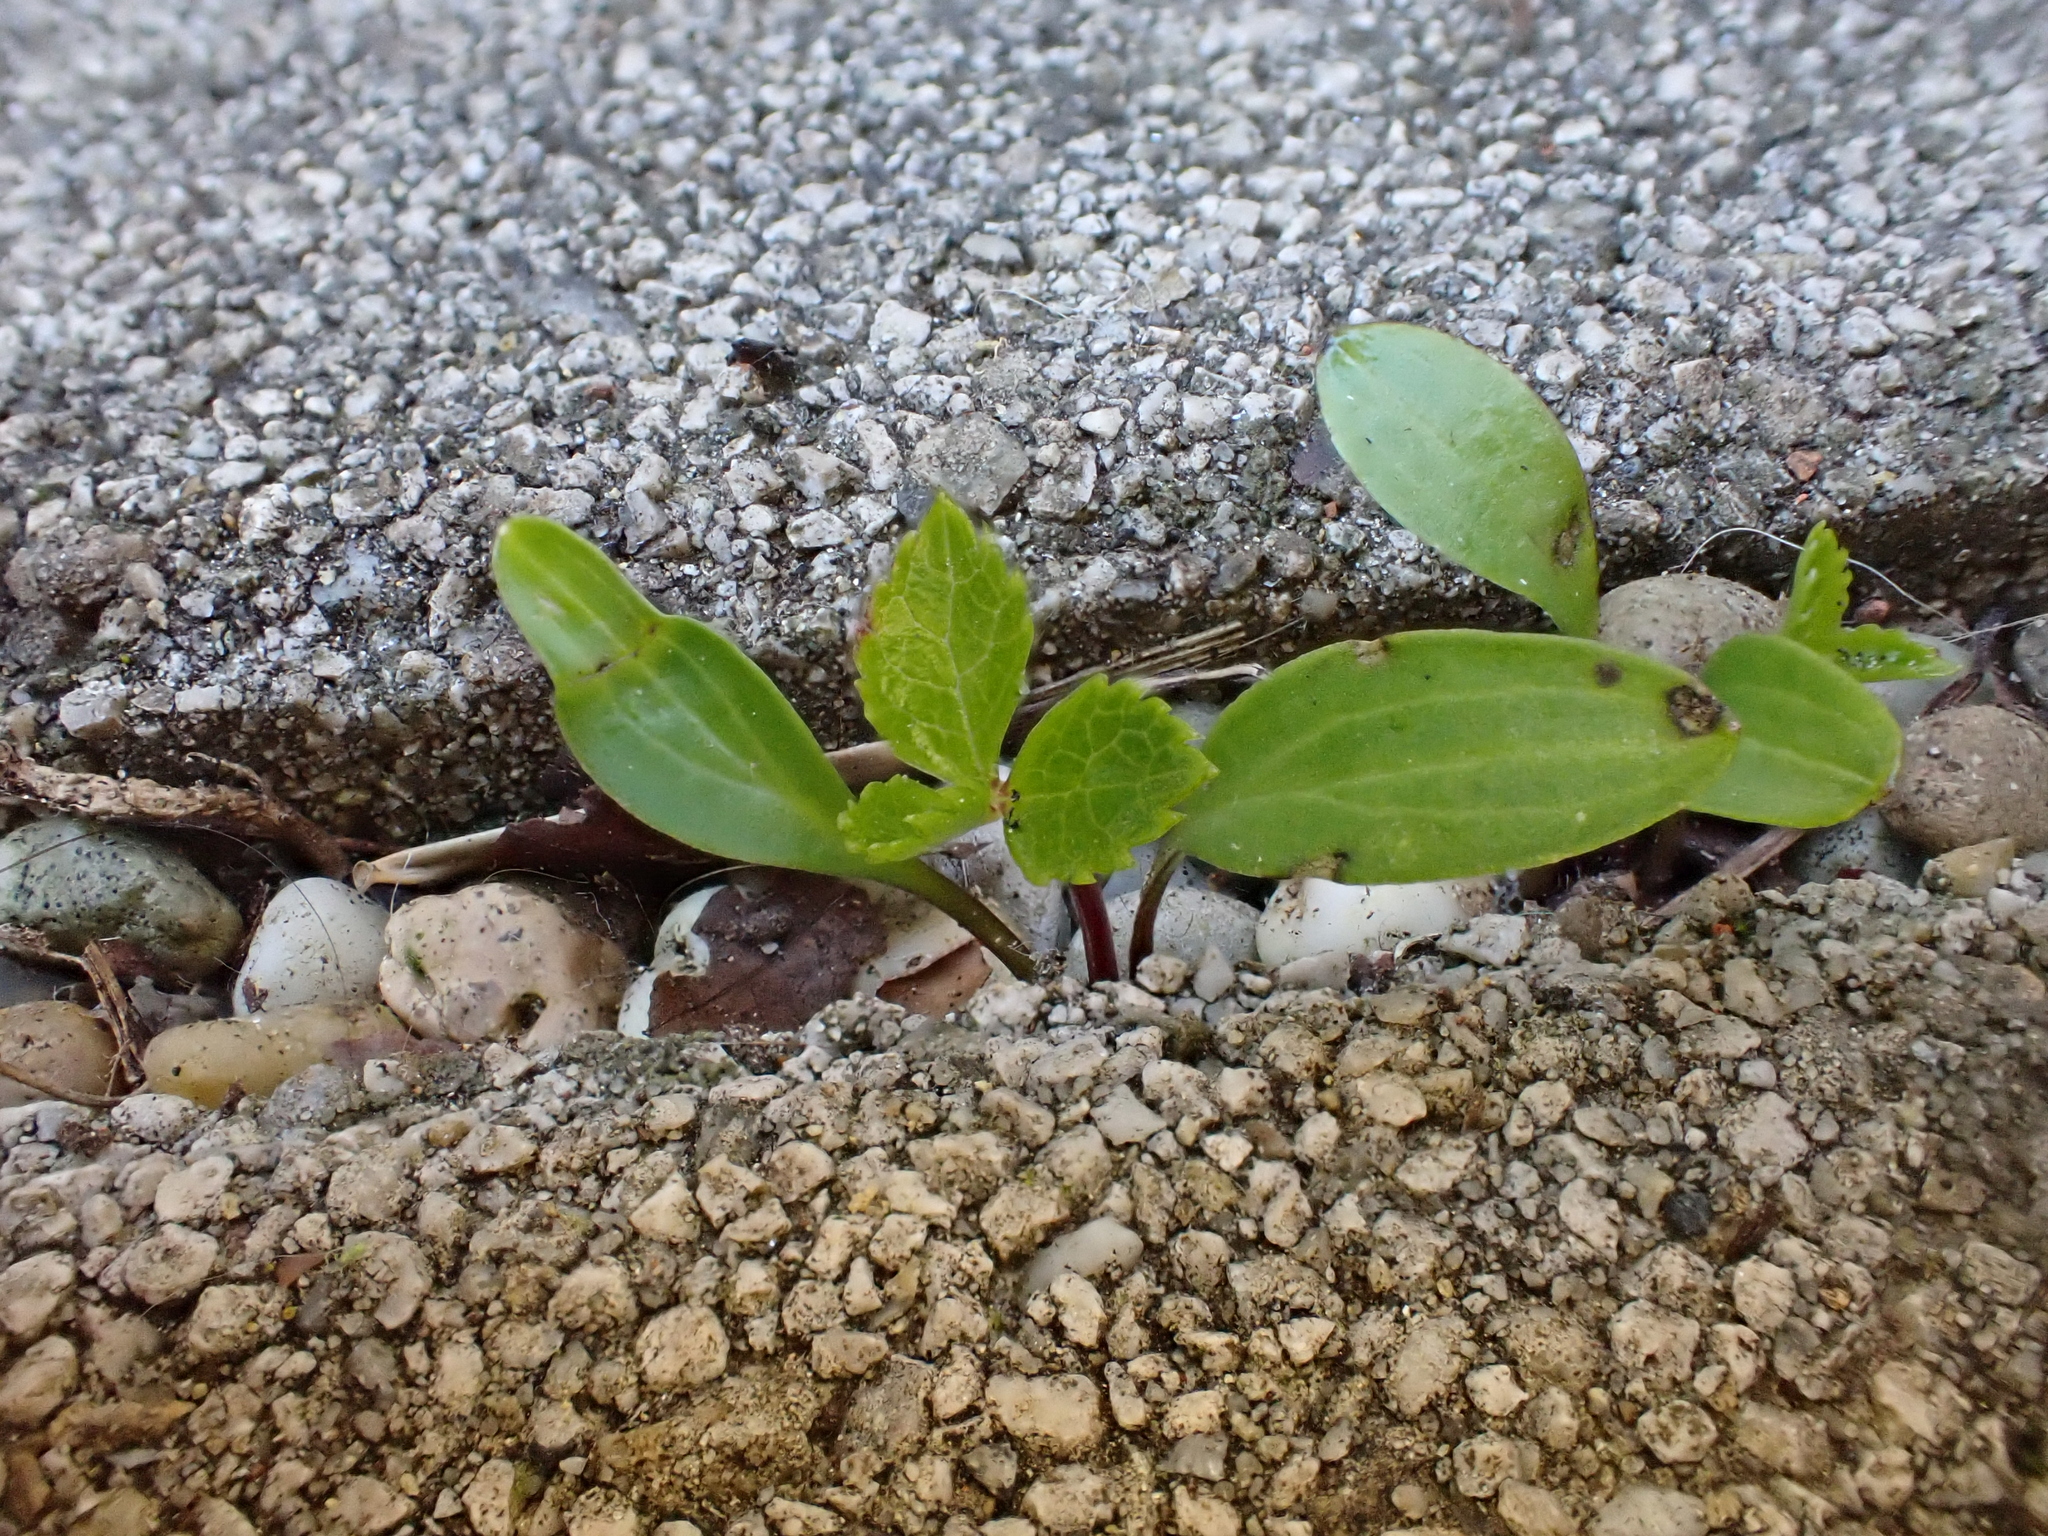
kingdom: Plantae
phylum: Tracheophyta
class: Magnoliopsida
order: Ranunculales
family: Ranunculaceae
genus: Helleborus
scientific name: Helleborus hybridus
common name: Hybrid lenten-rose
